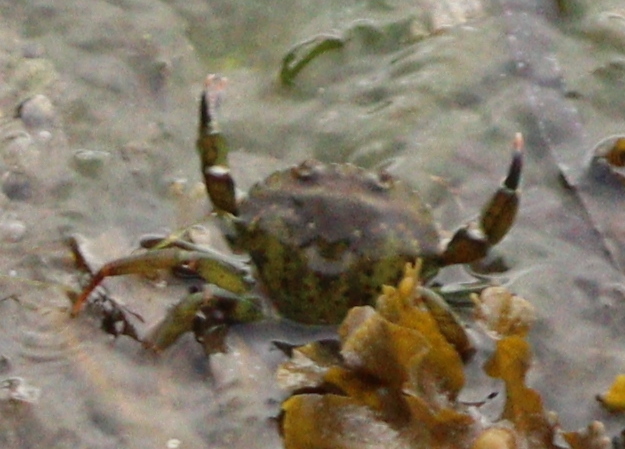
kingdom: Animalia
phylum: Arthropoda
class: Malacostraca
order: Decapoda
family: Carcinidae
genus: Carcinus
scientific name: Carcinus maenas
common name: European green crab
